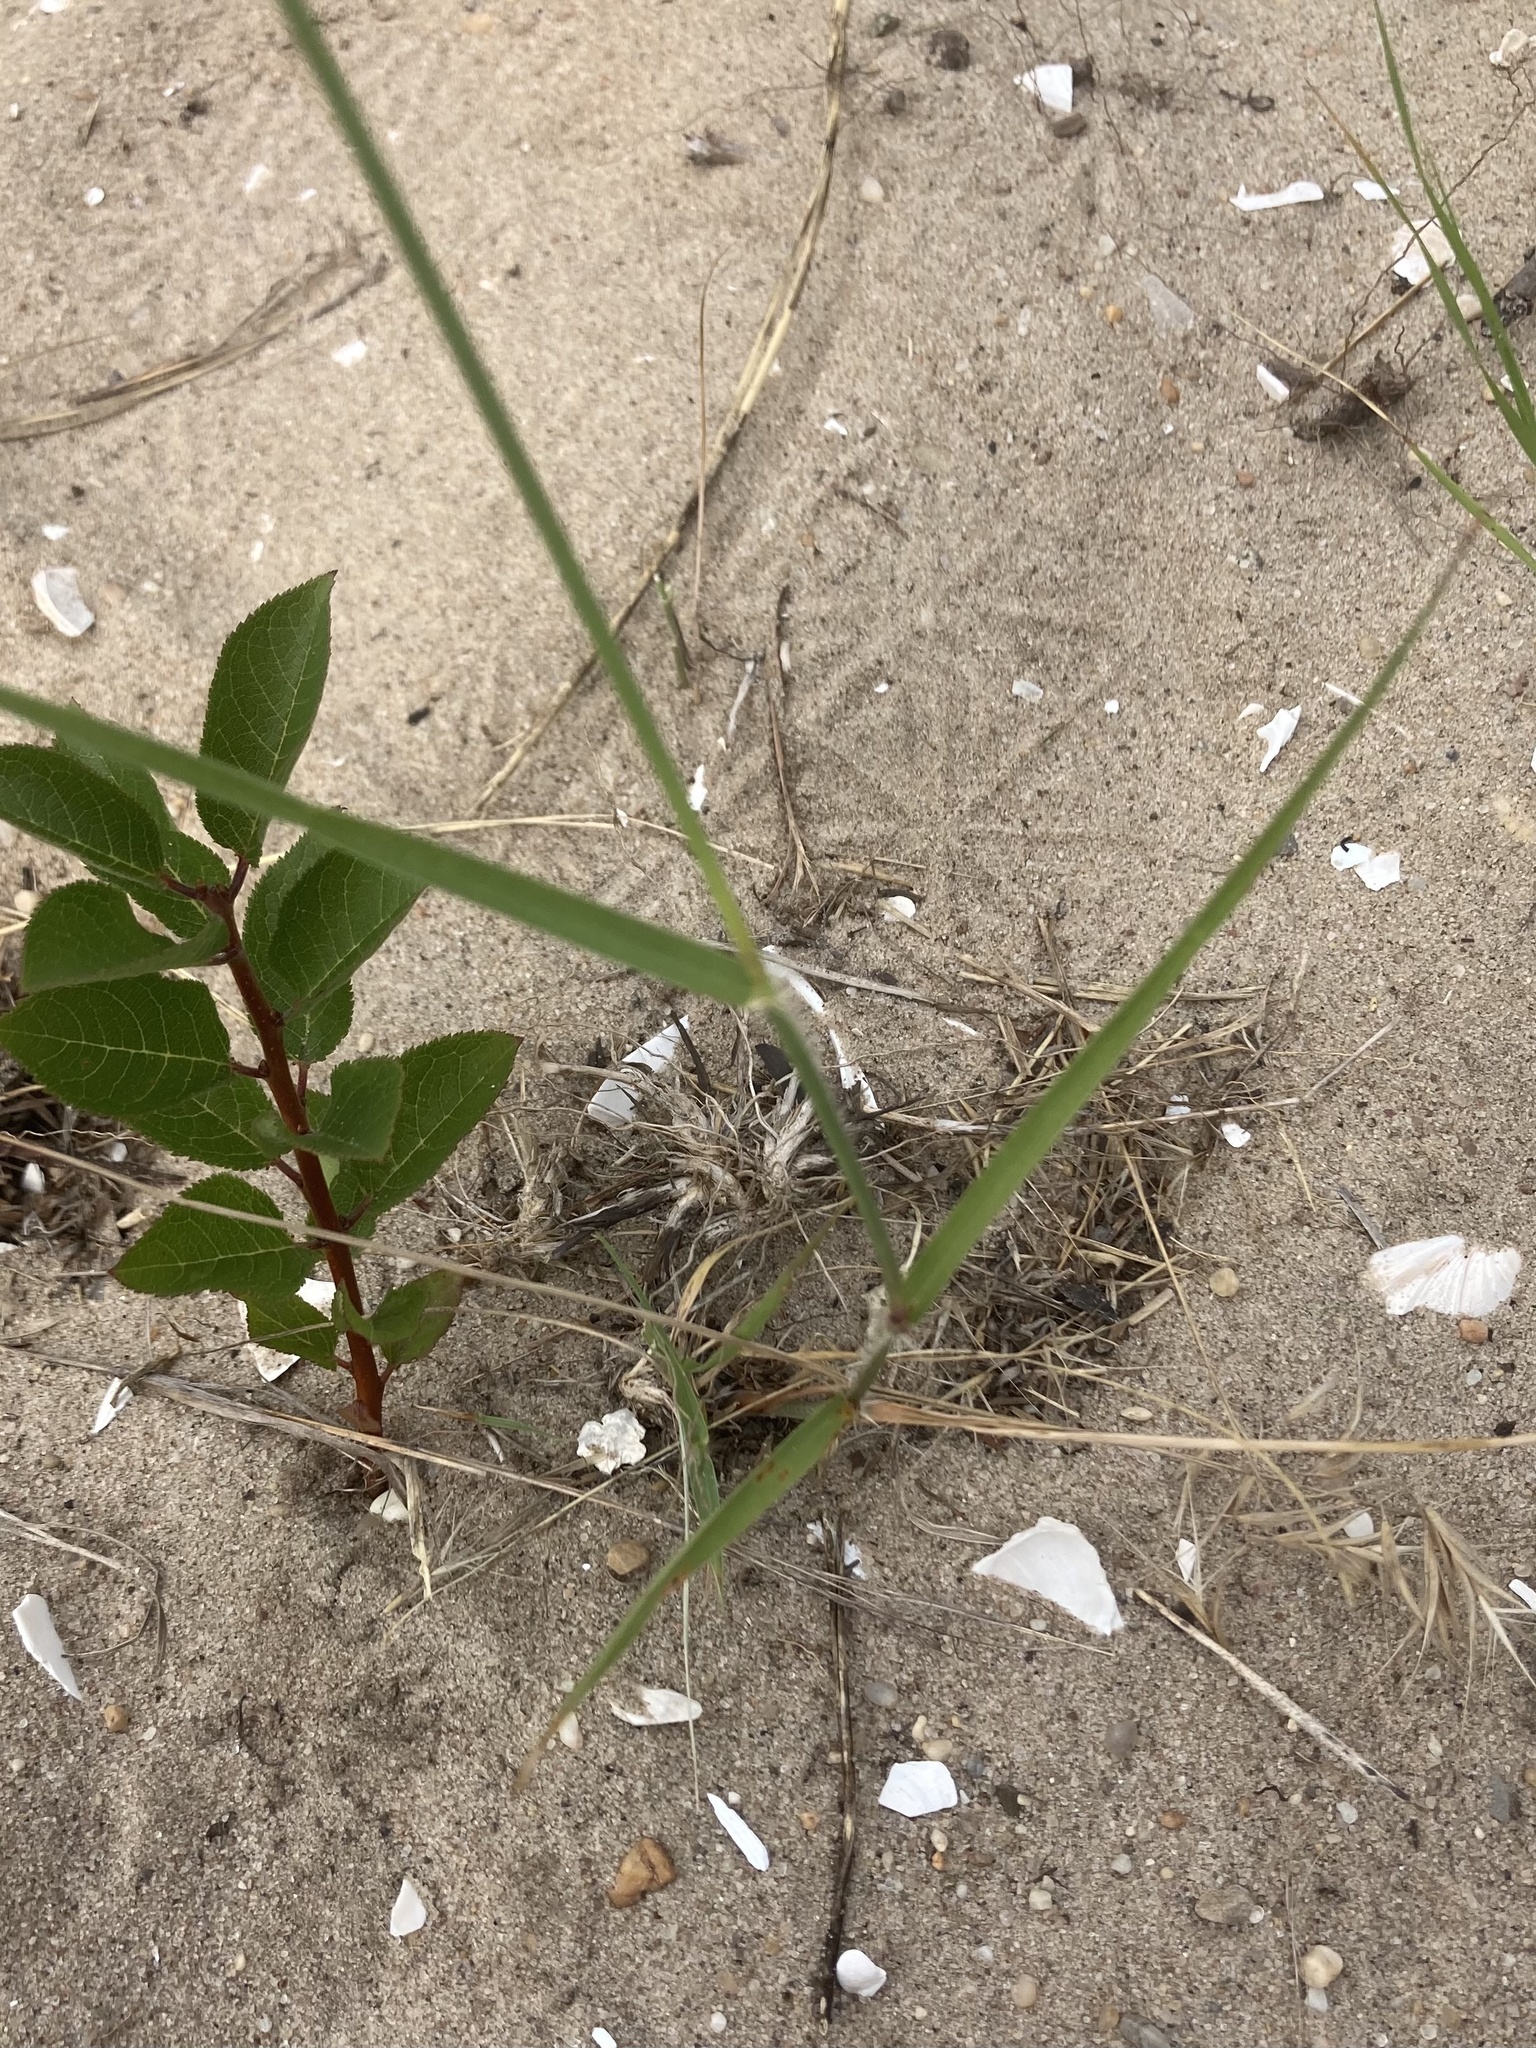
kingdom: Plantae
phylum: Tracheophyta
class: Liliopsida
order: Poales
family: Poaceae
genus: Sporobolus
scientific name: Sporobolus cryptandrus
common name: Sand dropseed
